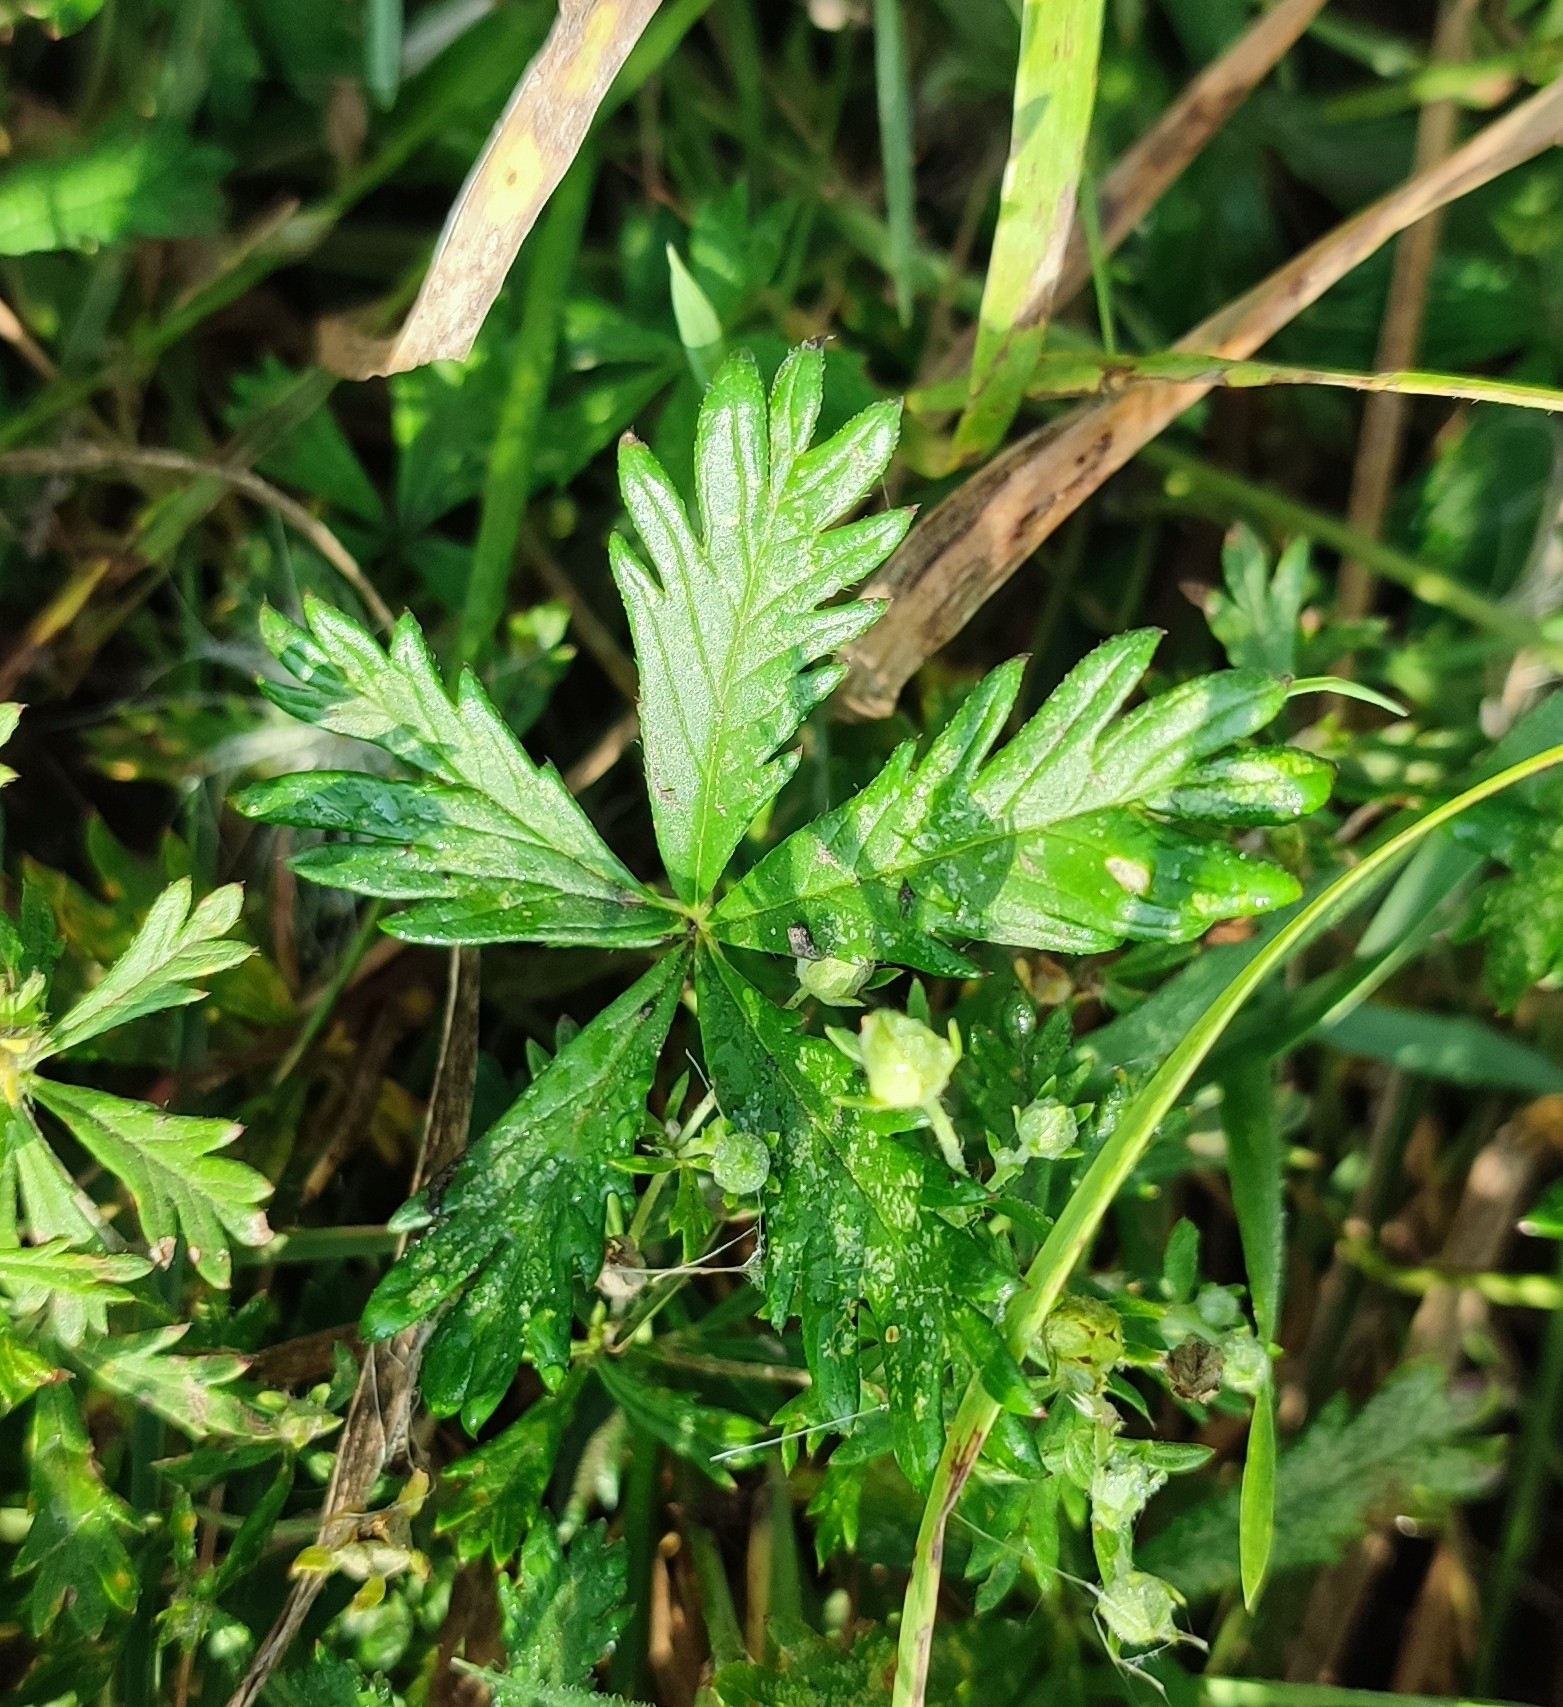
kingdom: Plantae
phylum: Tracheophyta
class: Magnoliopsida
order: Rosales
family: Rosaceae
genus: Potentilla
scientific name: Potentilla argentea
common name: Hoary cinquefoil
